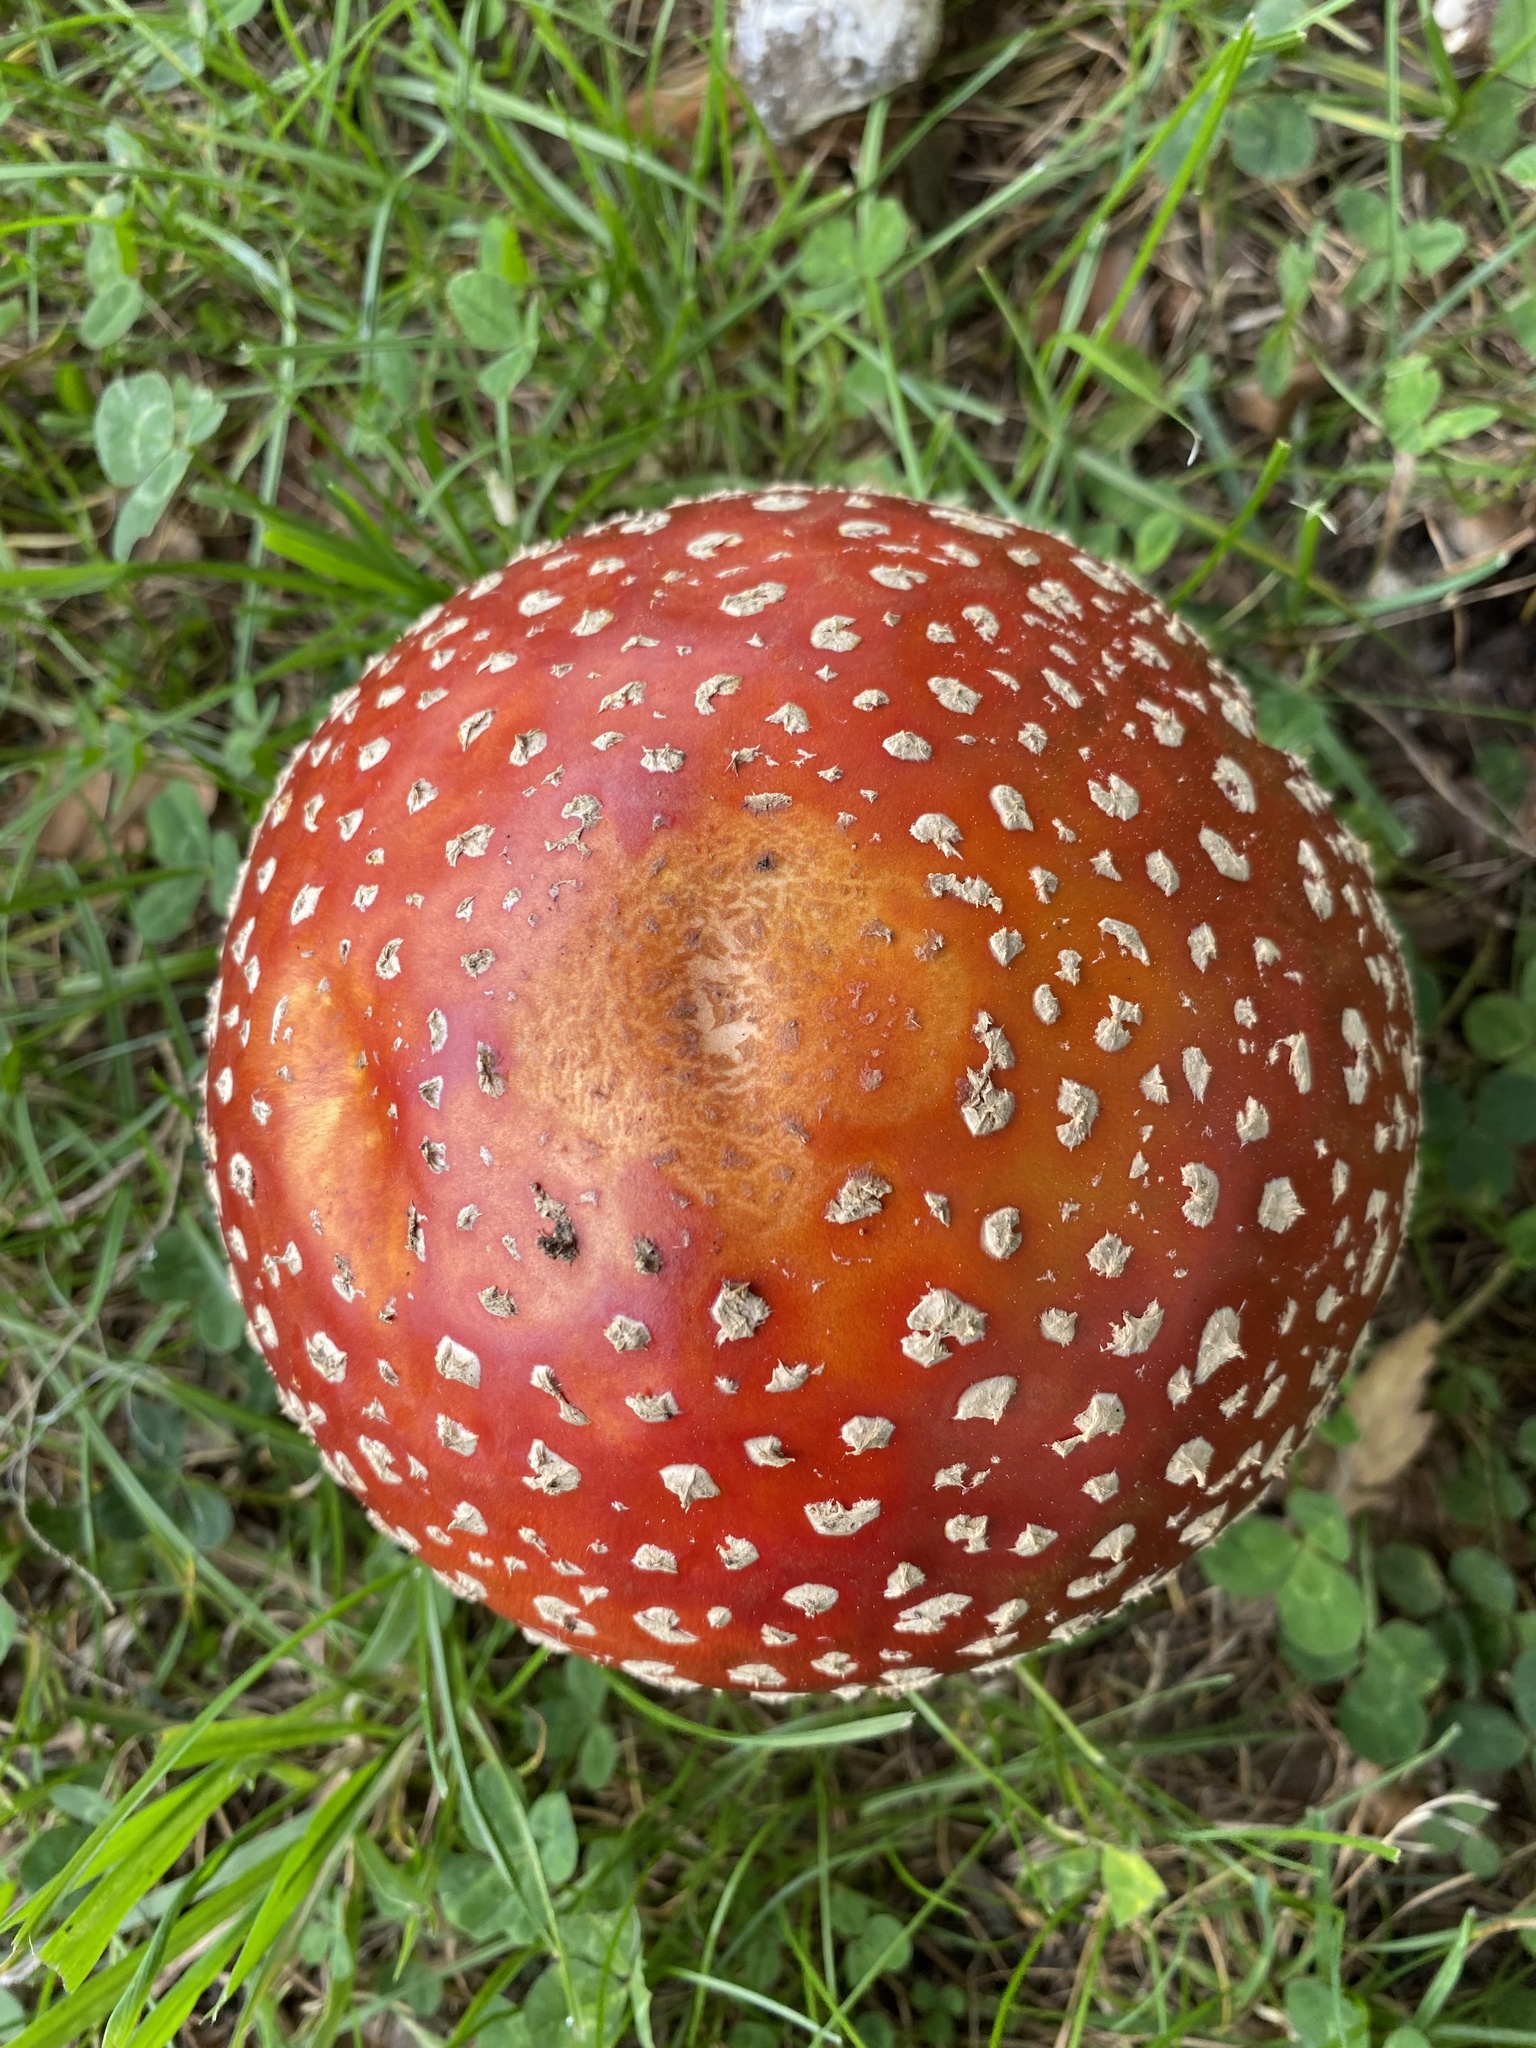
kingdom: Fungi
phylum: Basidiomycota
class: Agaricomycetes
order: Agaricales
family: Amanitaceae
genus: Amanita
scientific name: Amanita muscaria
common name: Fly agaric
